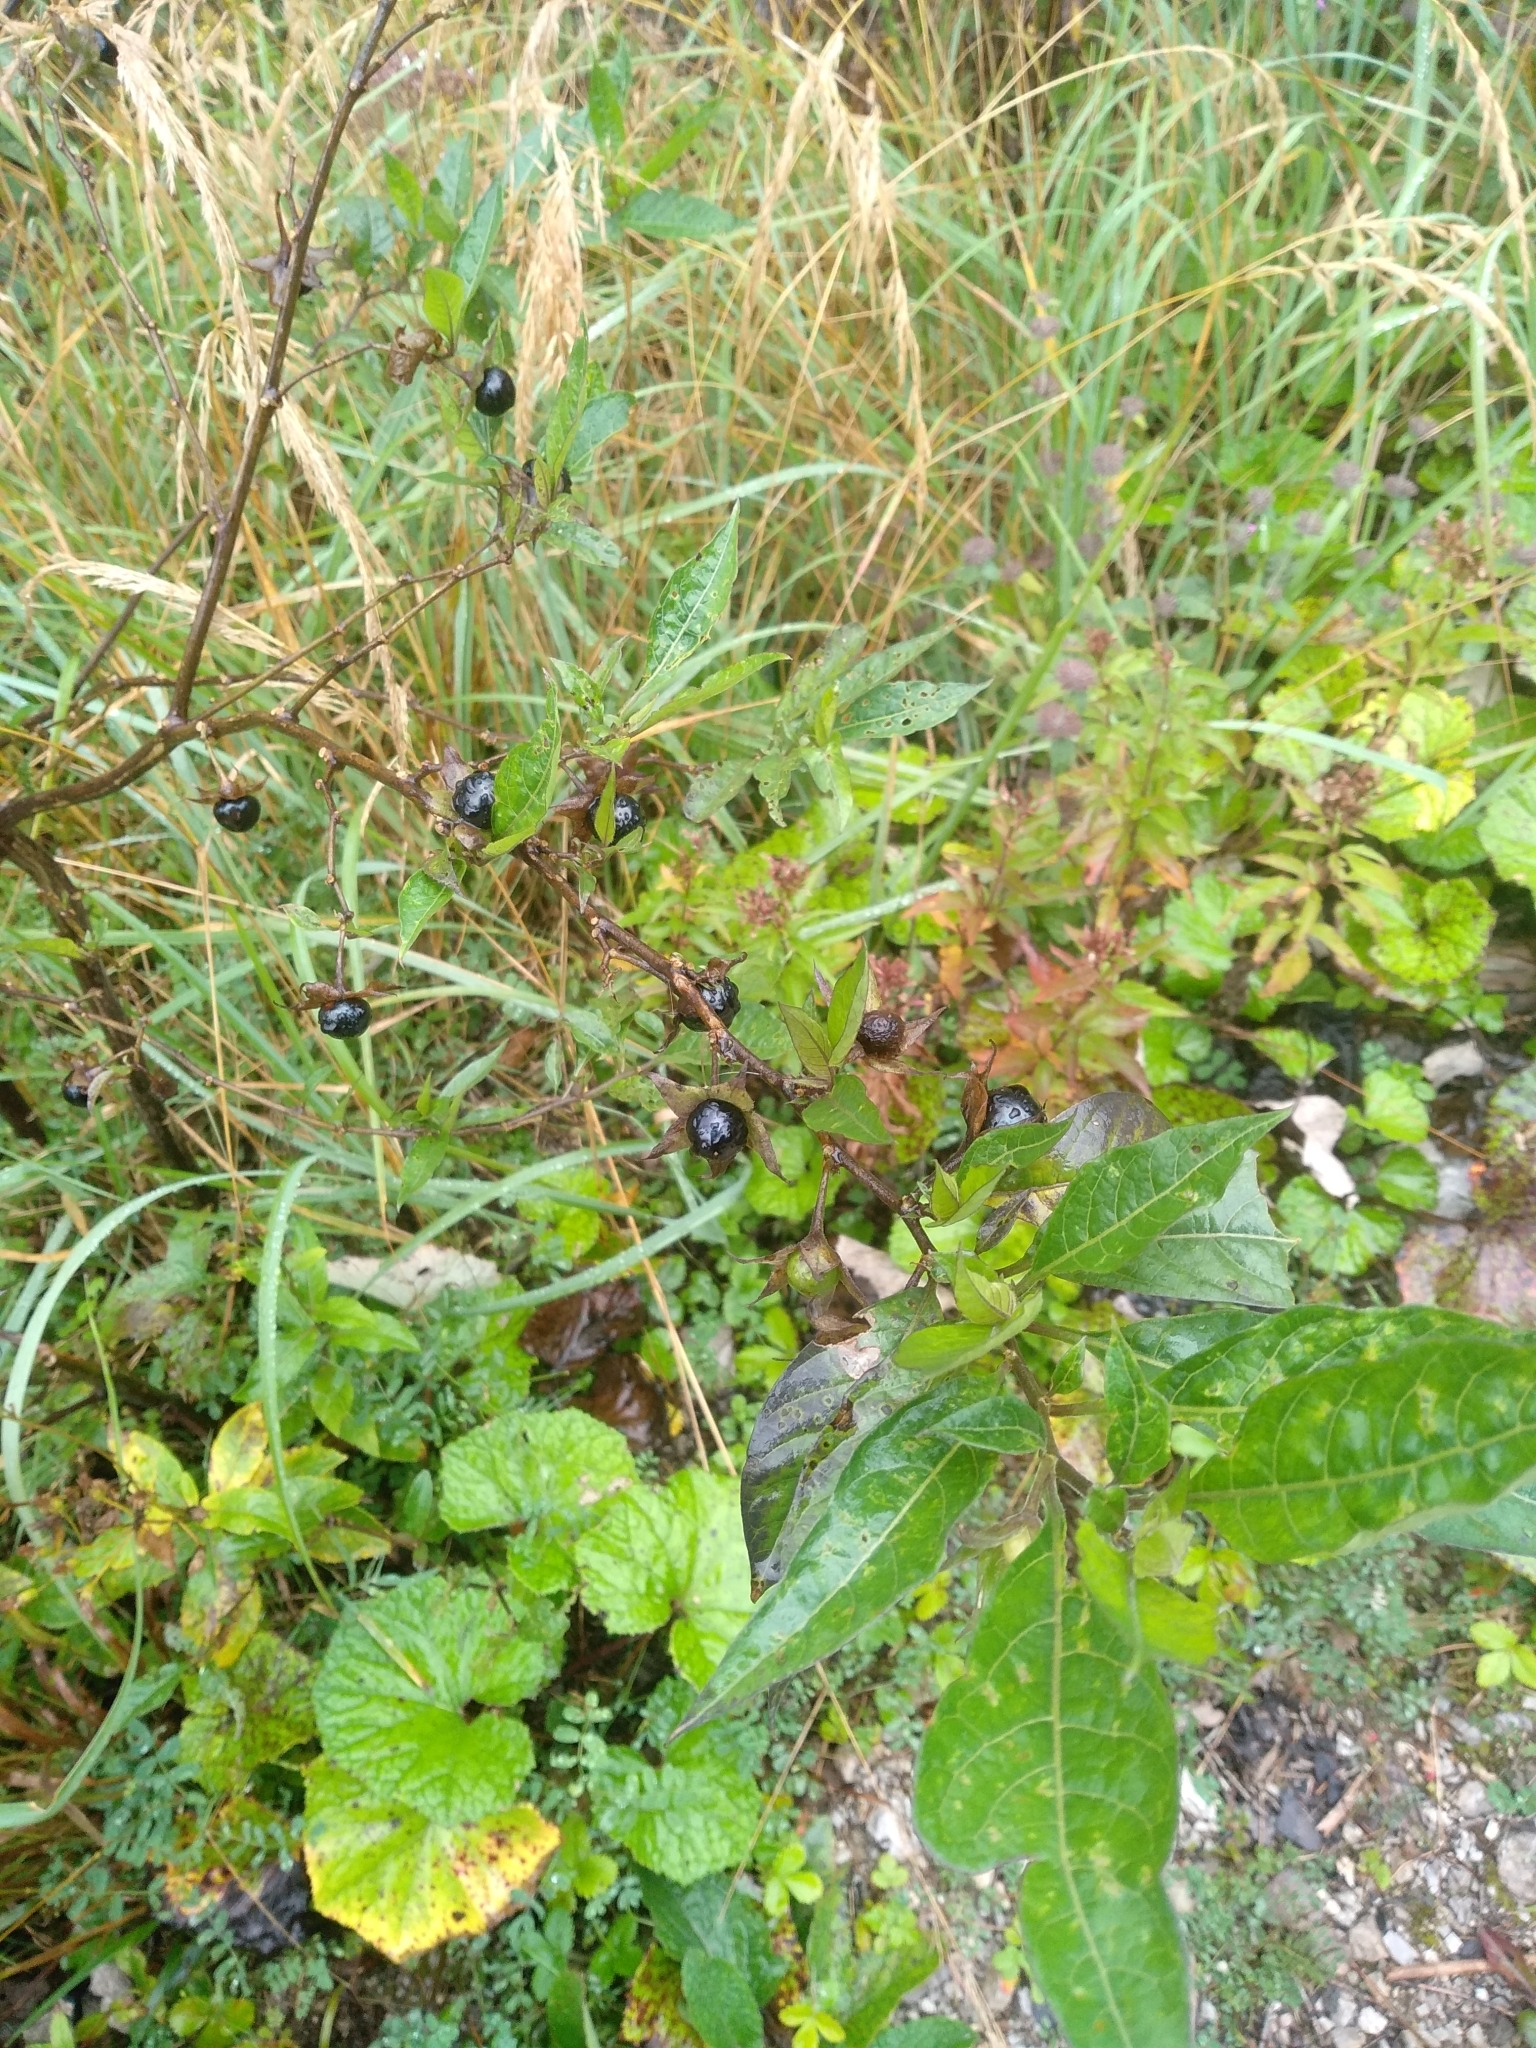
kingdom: Plantae
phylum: Tracheophyta
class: Magnoliopsida
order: Solanales
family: Solanaceae
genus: Atropa
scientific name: Atropa belladonna
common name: Deadly nightshade
